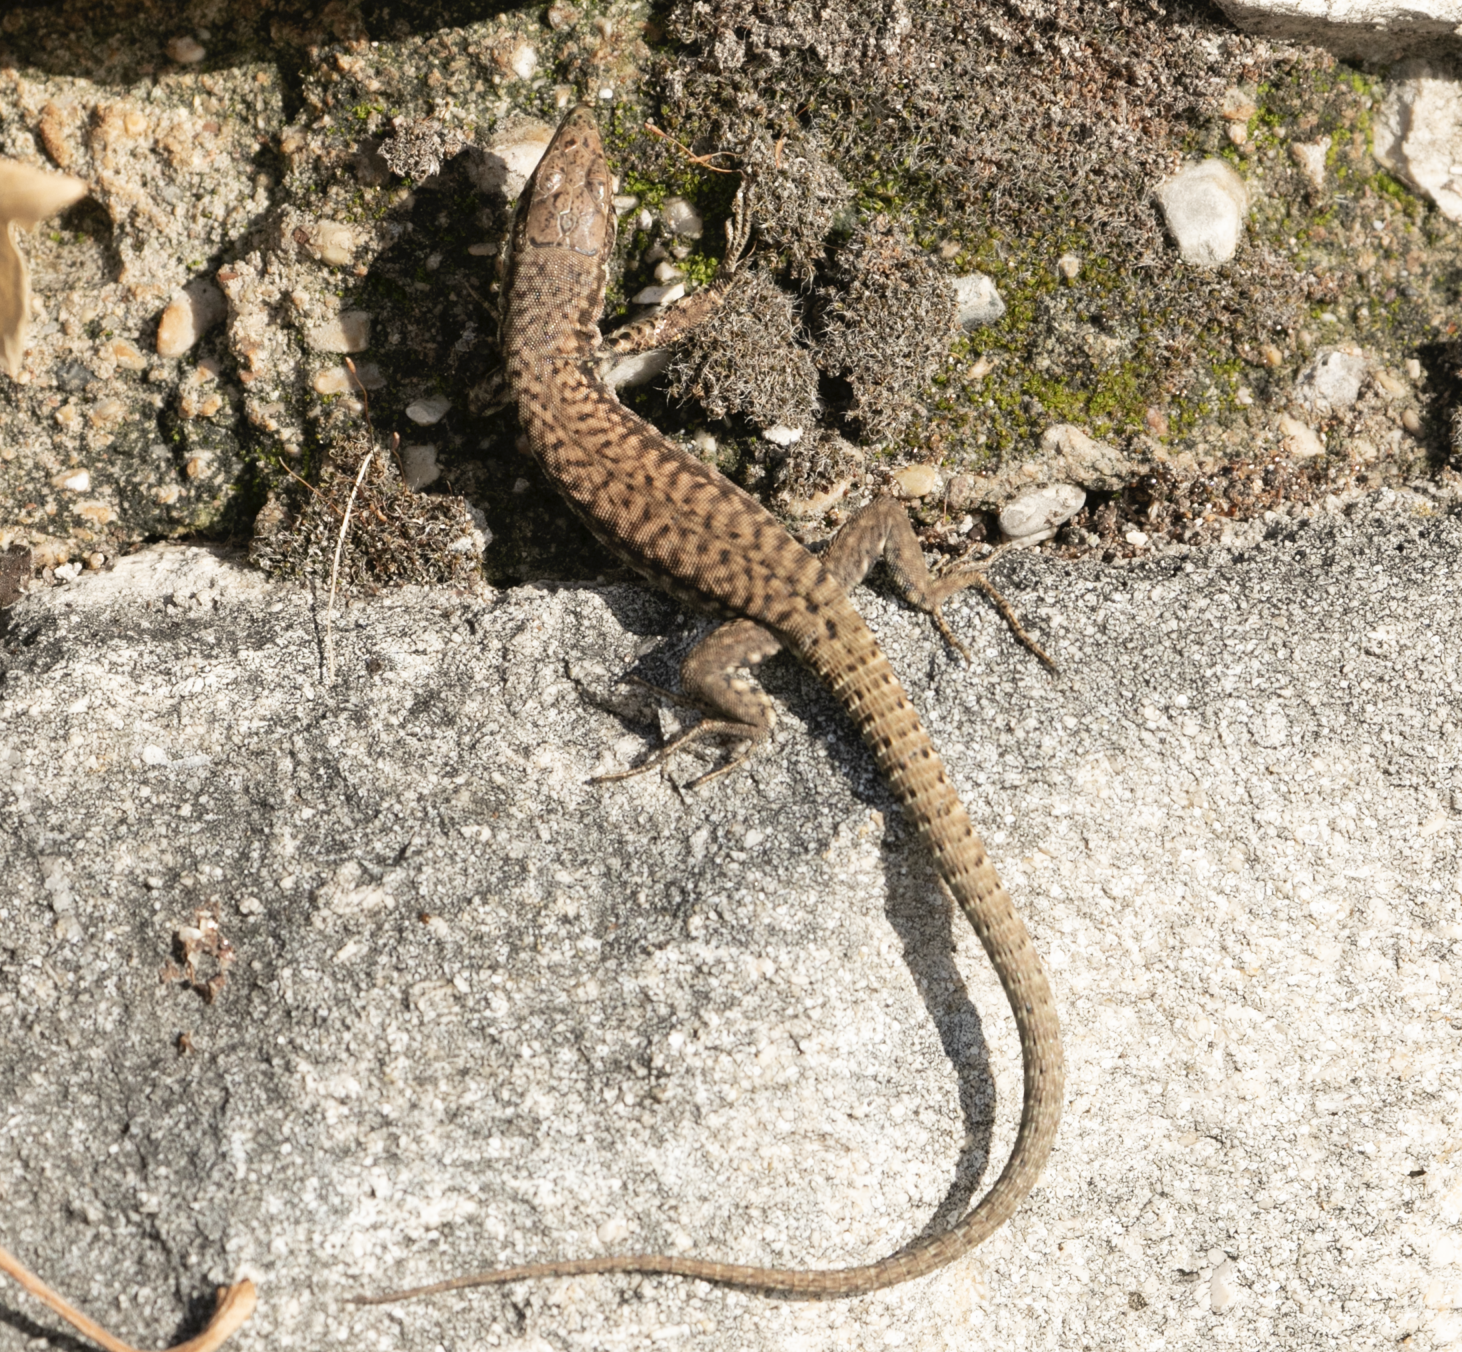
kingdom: Animalia
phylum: Chordata
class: Squamata
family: Lacertidae
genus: Podarcis
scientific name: Podarcis muralis
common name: Common wall lizard
